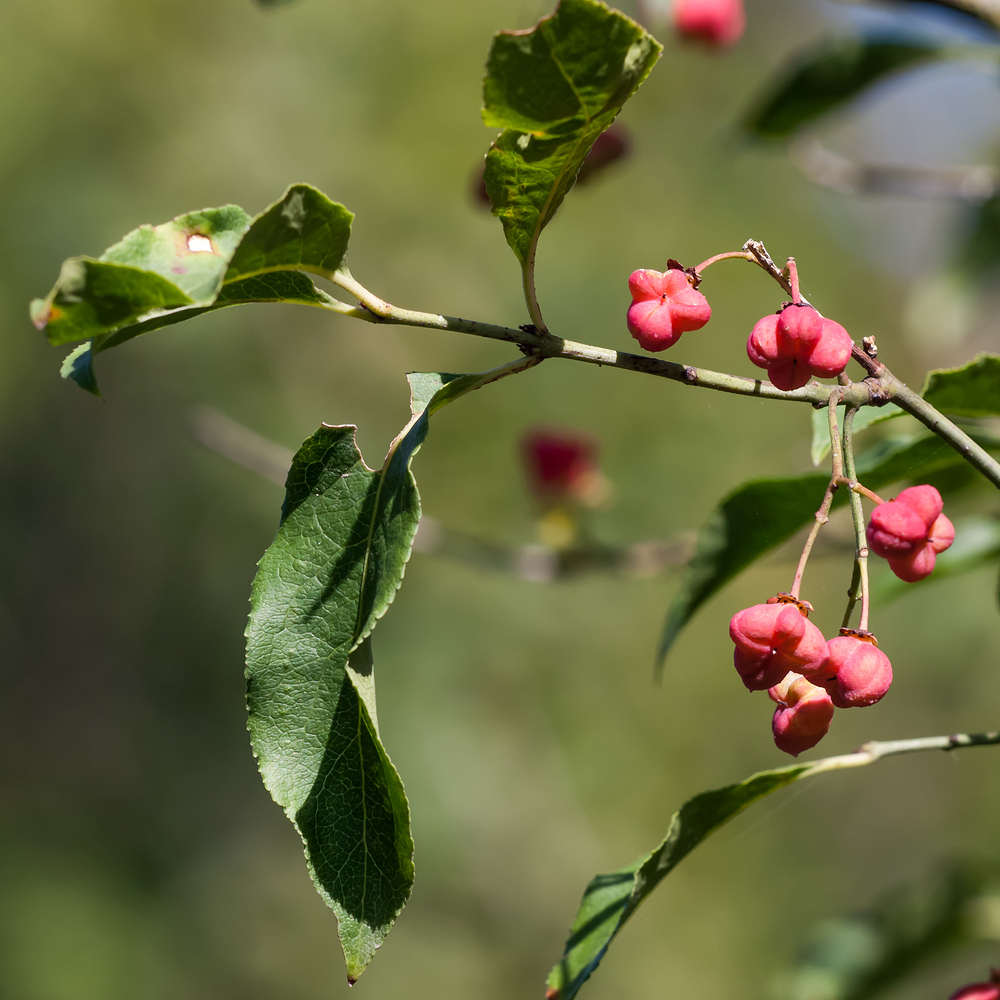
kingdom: Plantae
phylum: Tracheophyta
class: Magnoliopsida
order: Celastrales
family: Celastraceae
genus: Euonymus
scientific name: Euonymus europaeus
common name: Spindle
